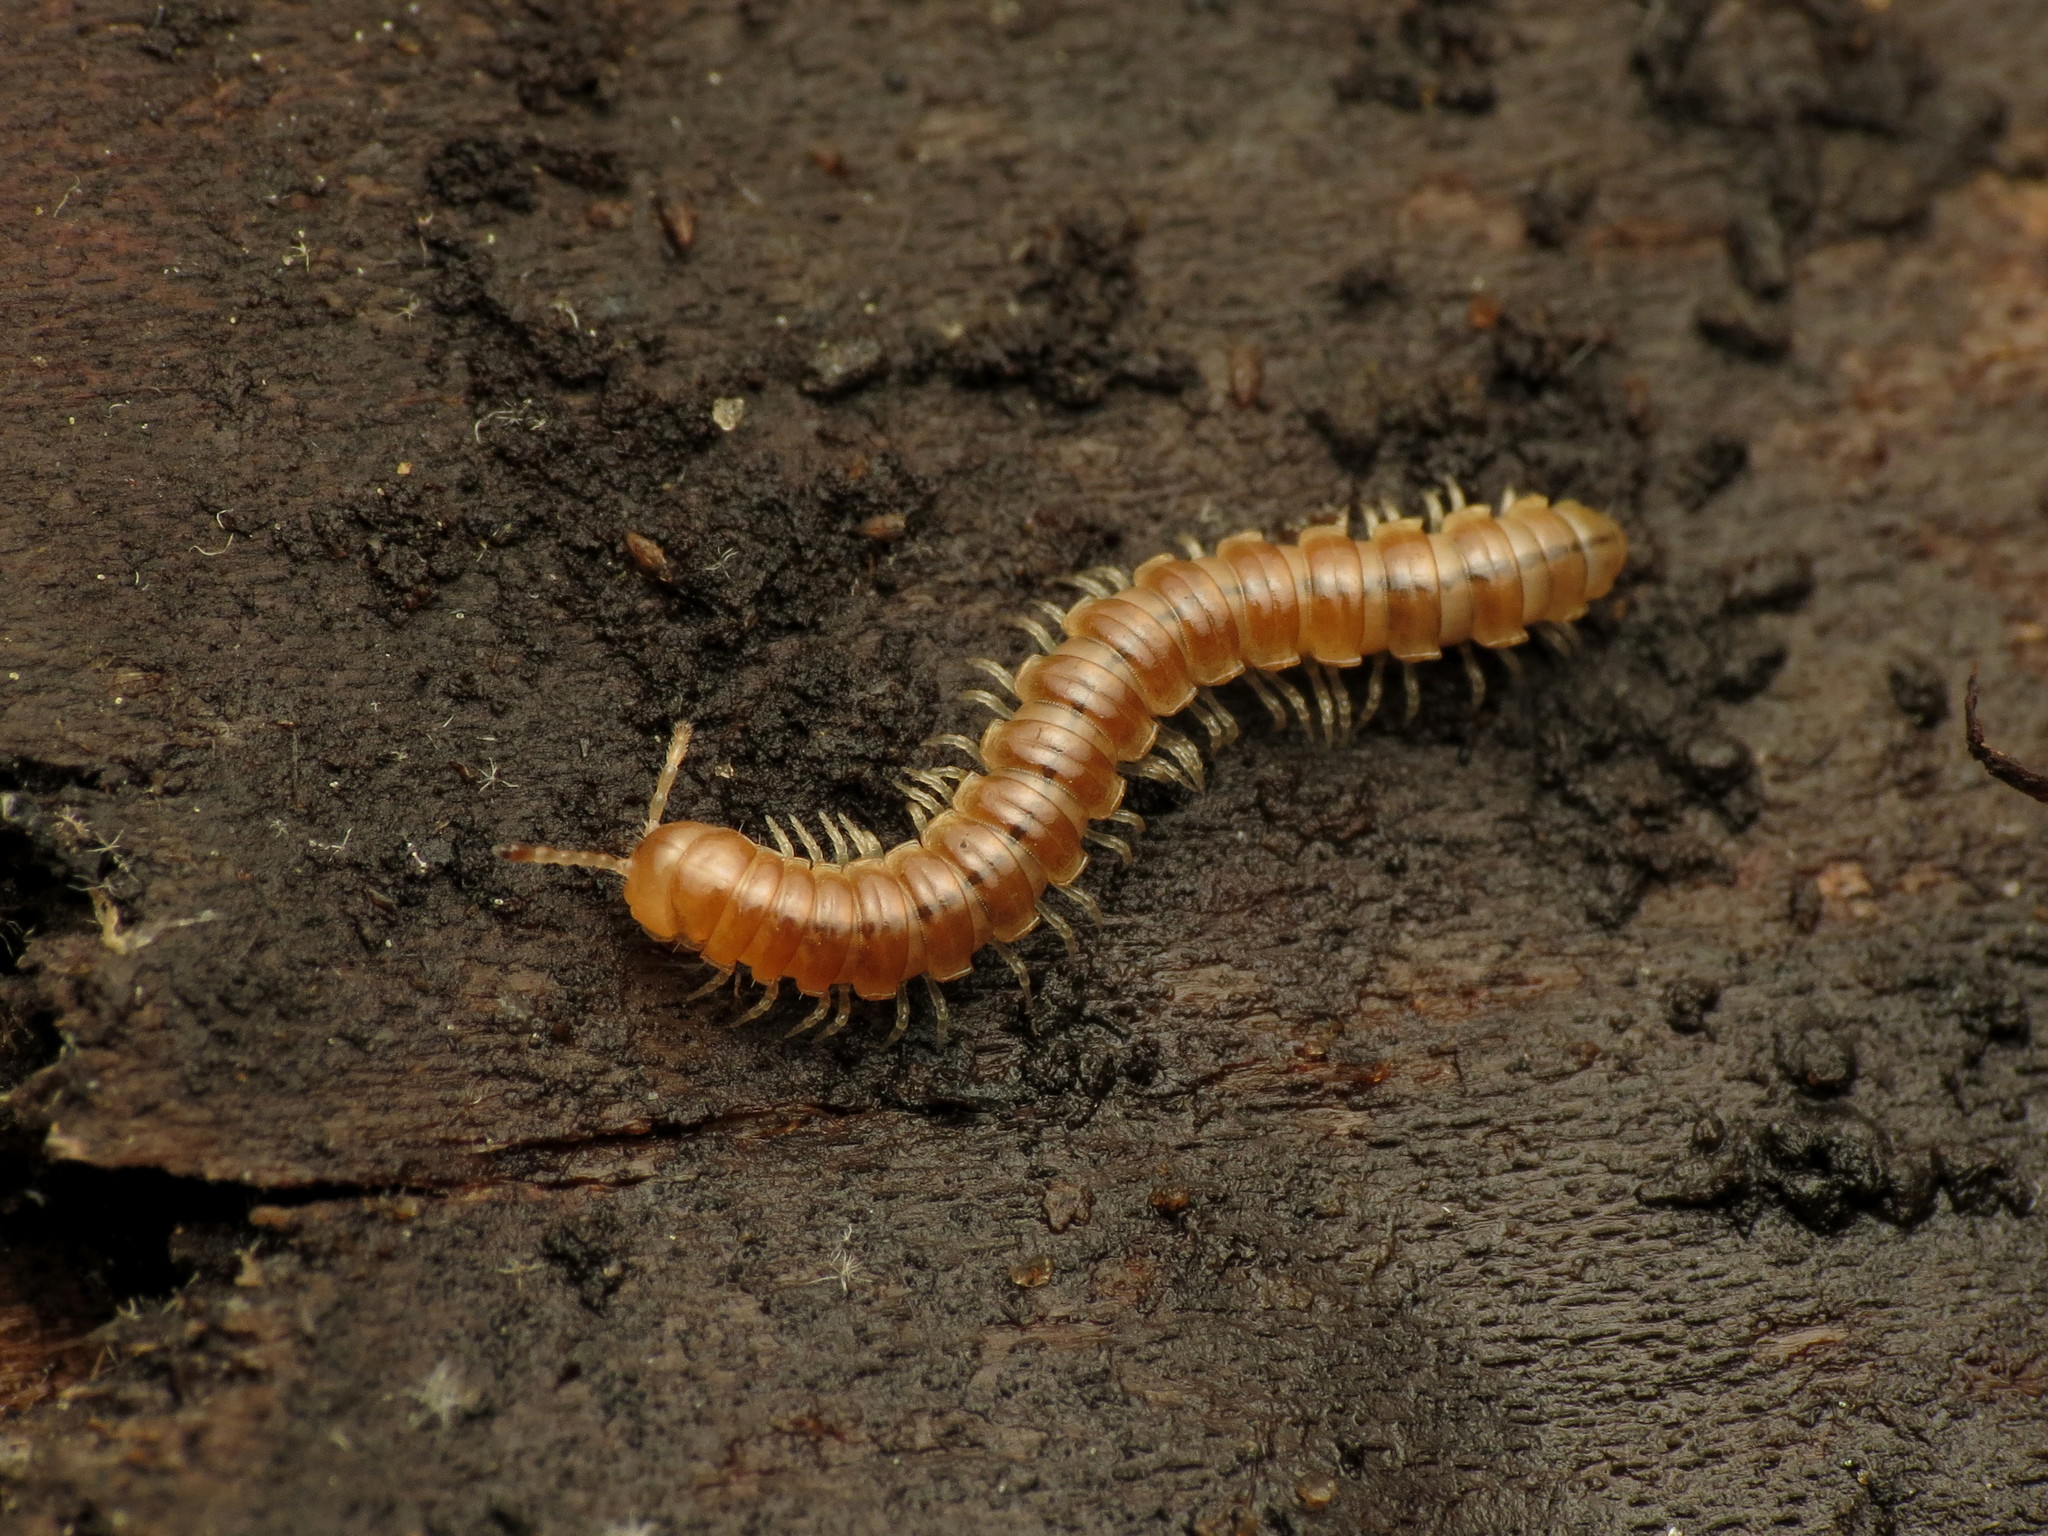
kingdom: Animalia
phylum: Arthropoda
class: Diplopoda
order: Polydesmida
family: Paradoxosomatidae
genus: Oxidus
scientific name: Oxidus gracilis
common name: Greenhouse millipede
